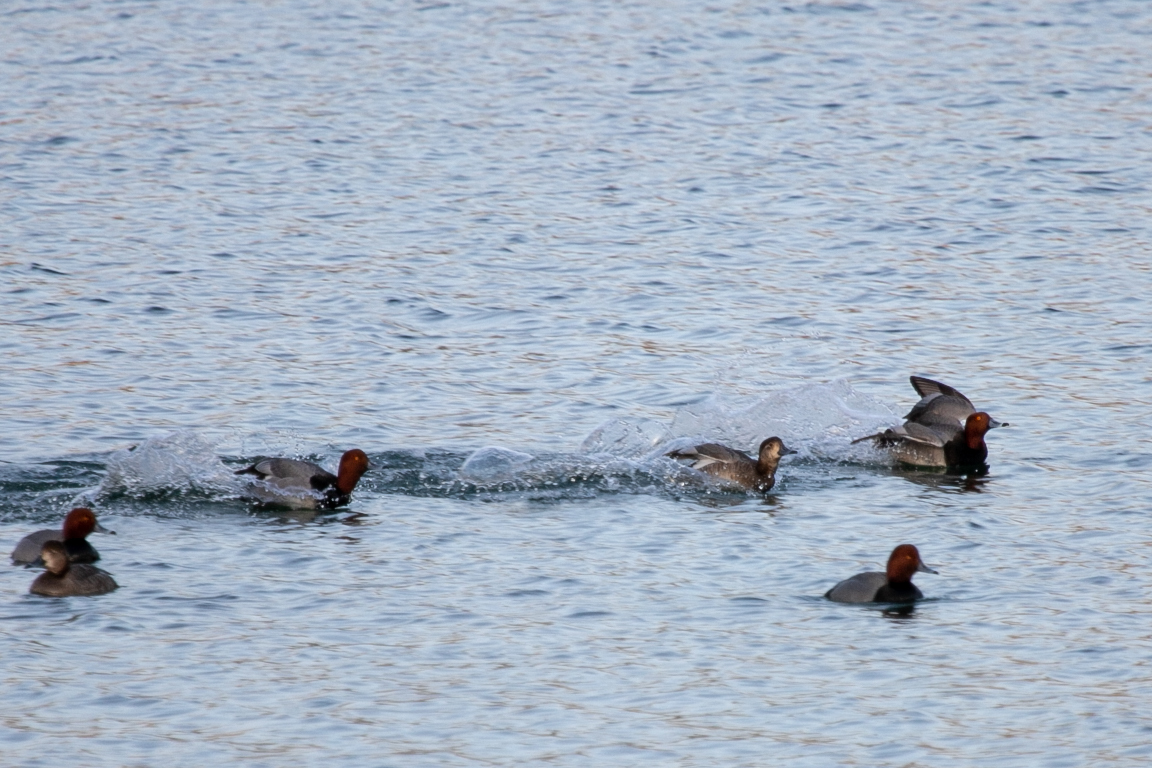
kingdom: Animalia
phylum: Chordata
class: Aves
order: Anseriformes
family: Anatidae
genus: Aythya
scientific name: Aythya americana
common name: Redhead
